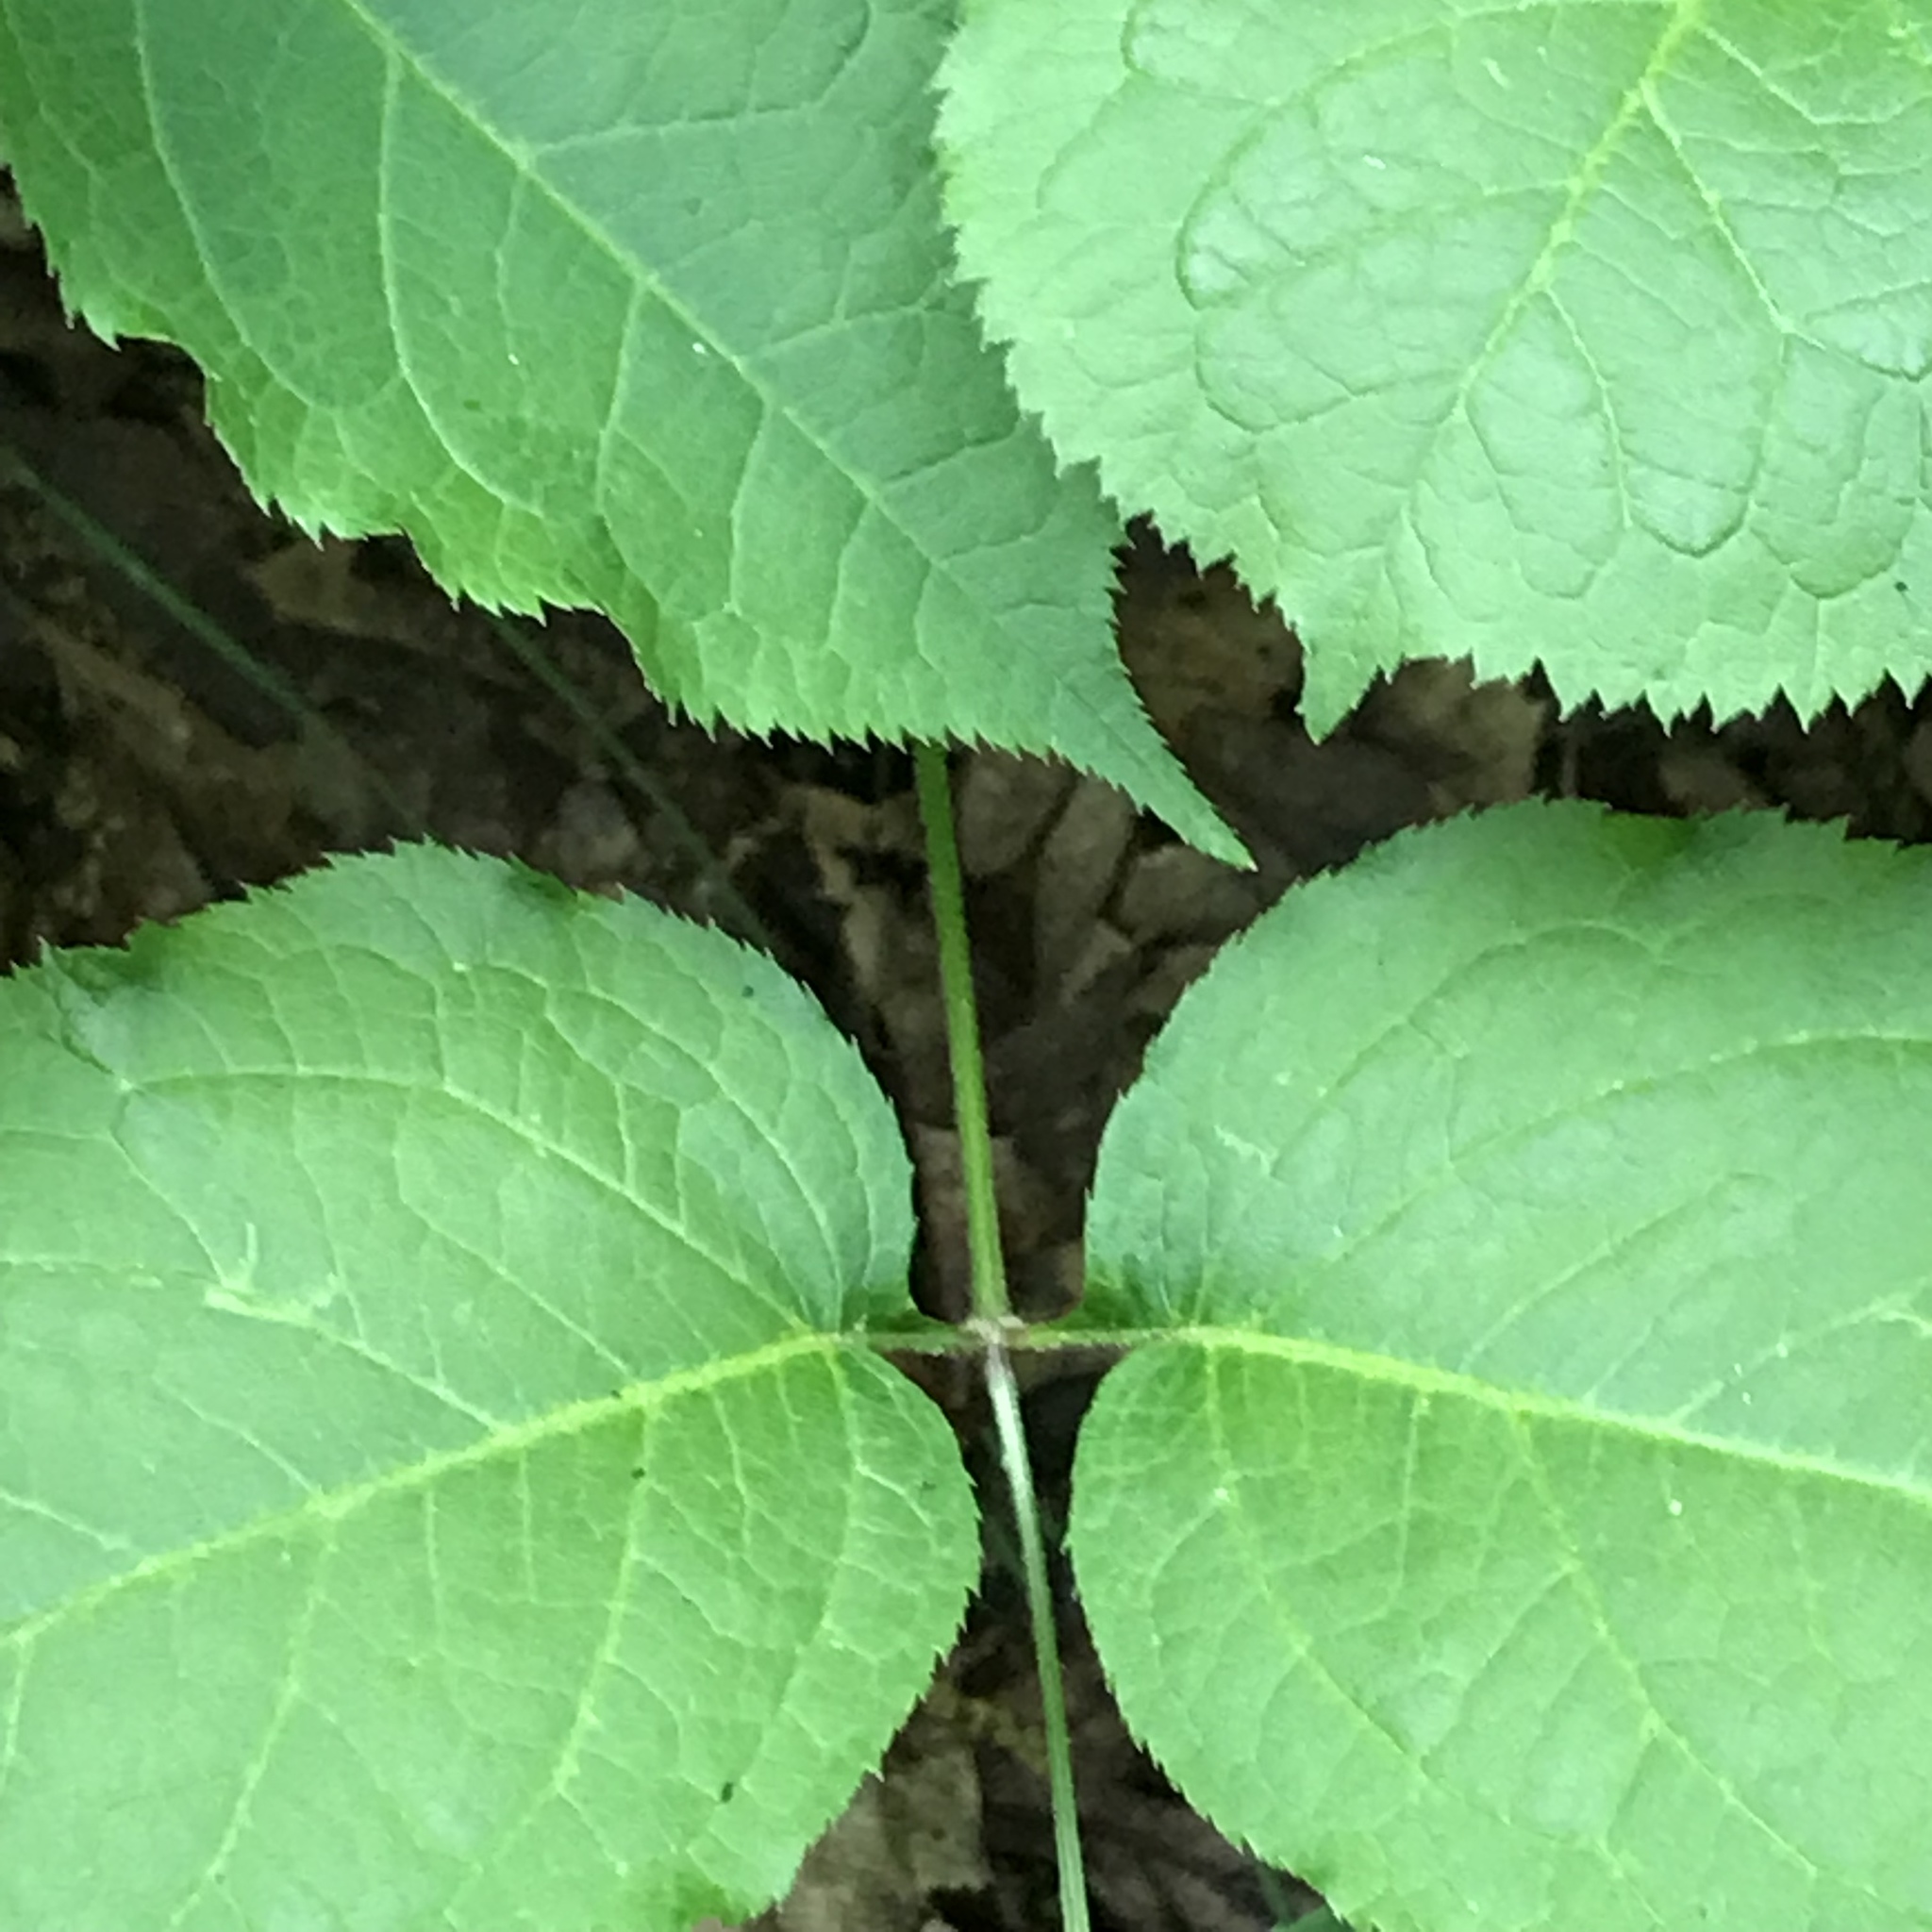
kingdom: Plantae
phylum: Tracheophyta
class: Magnoliopsida
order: Apiales
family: Araliaceae
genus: Aralia
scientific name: Aralia nudicaulis
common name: Wild sarsaparilla
